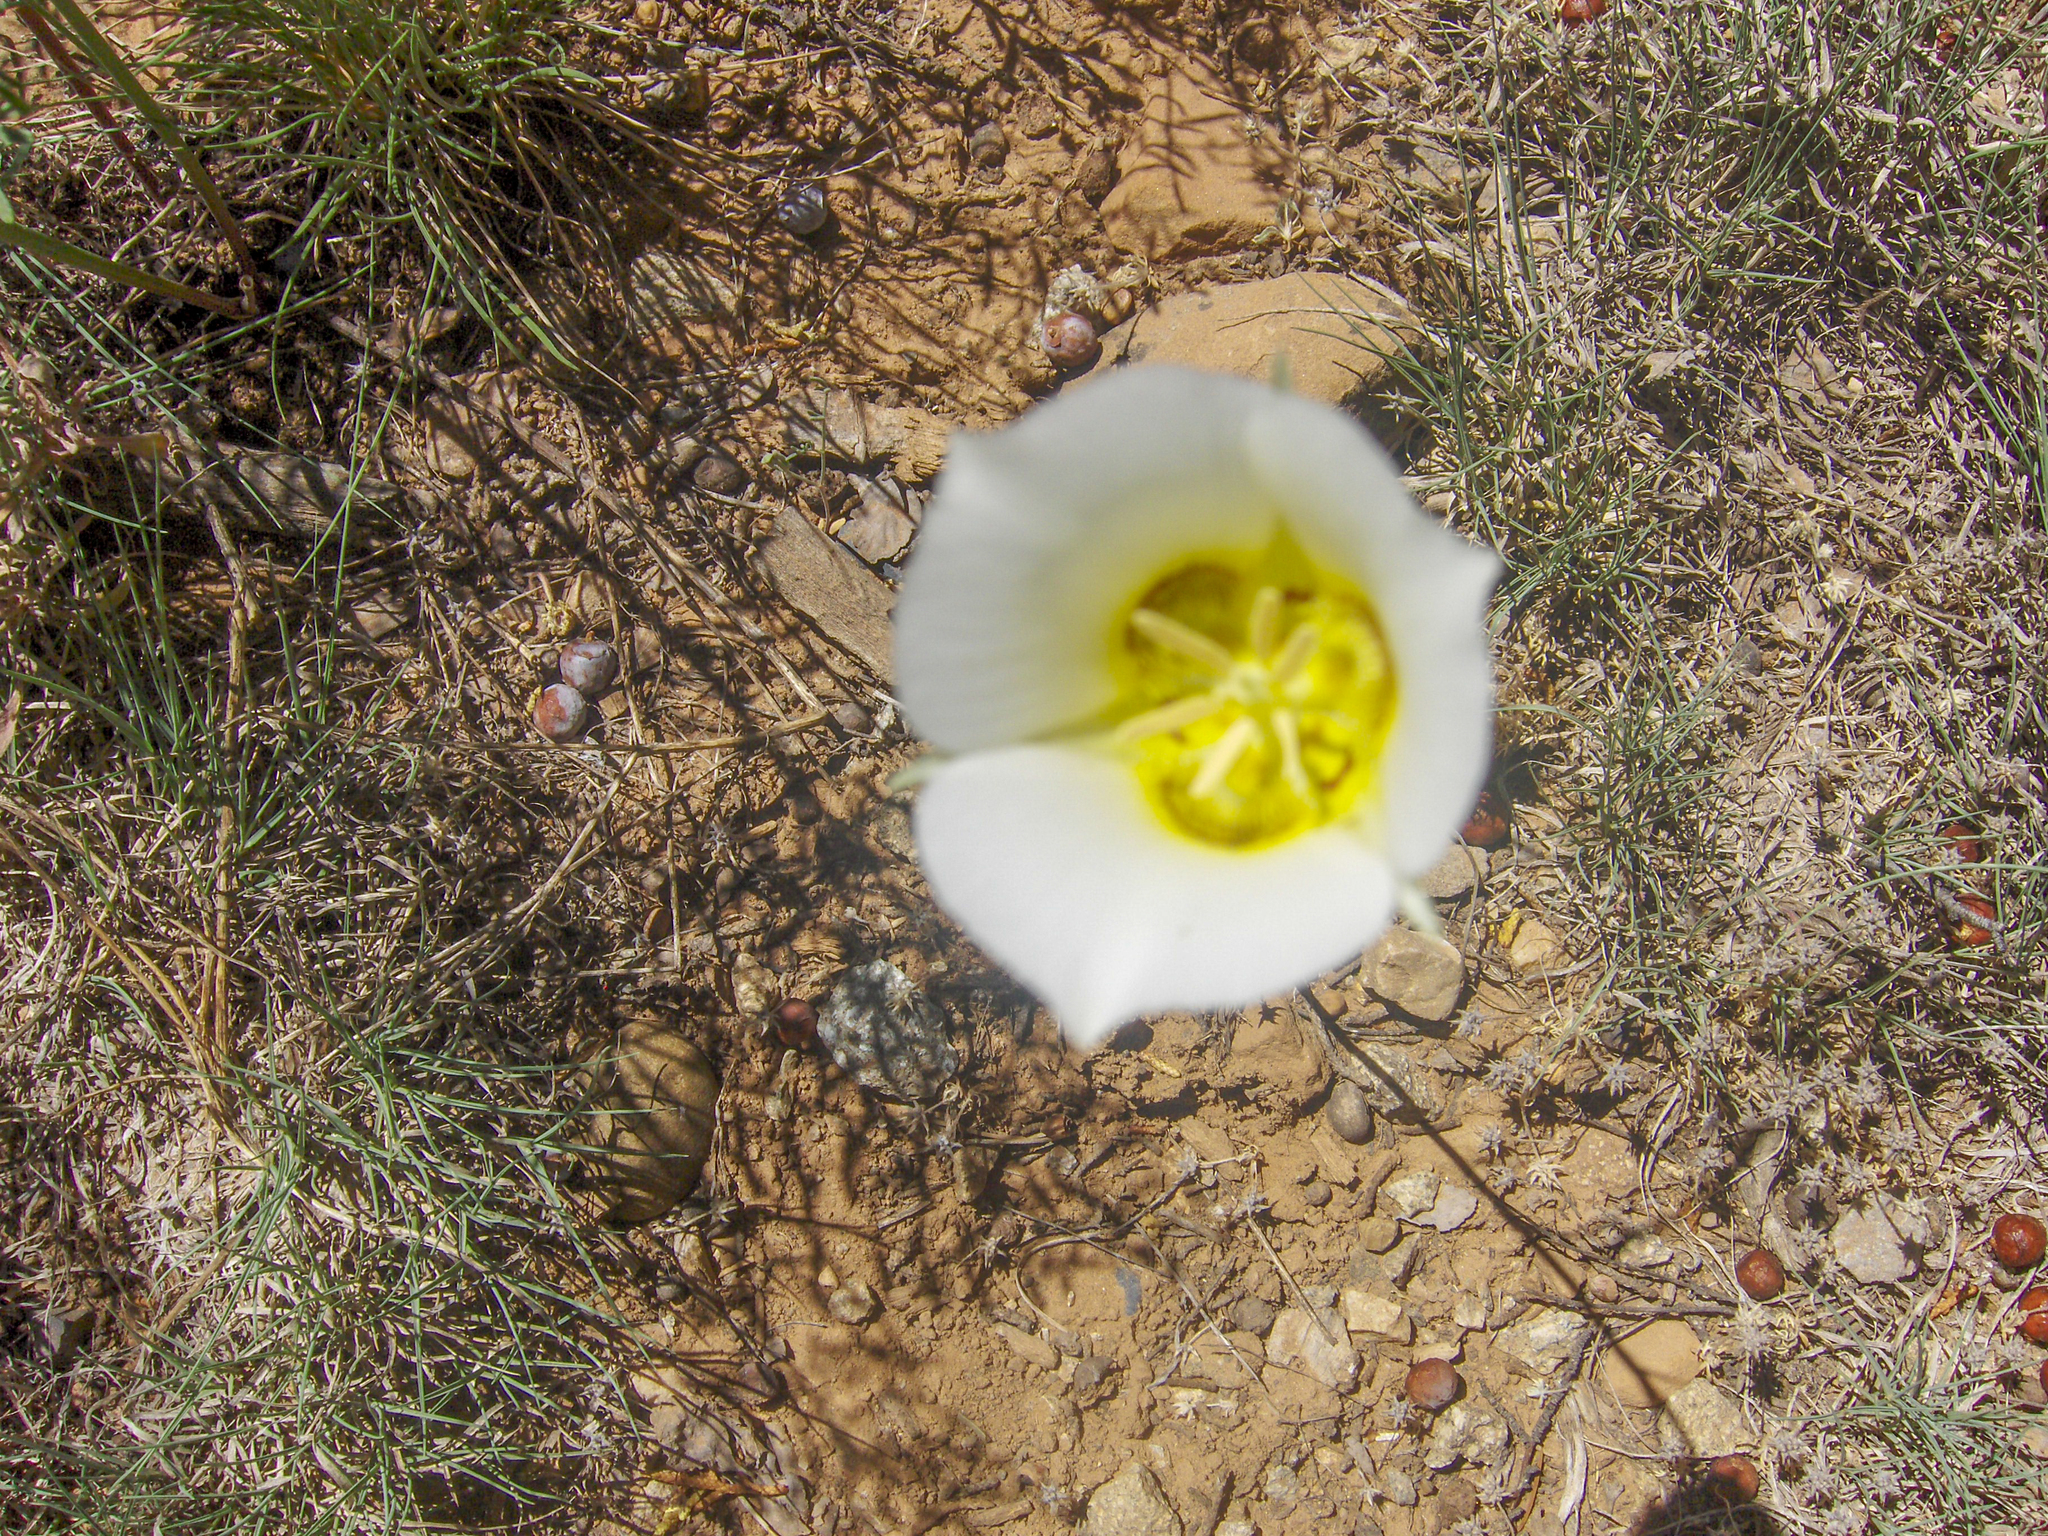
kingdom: Plantae
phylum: Tracheophyta
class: Liliopsida
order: Liliales
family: Liliaceae
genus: Calochortus
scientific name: Calochortus nuttallii
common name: Sego-lily
